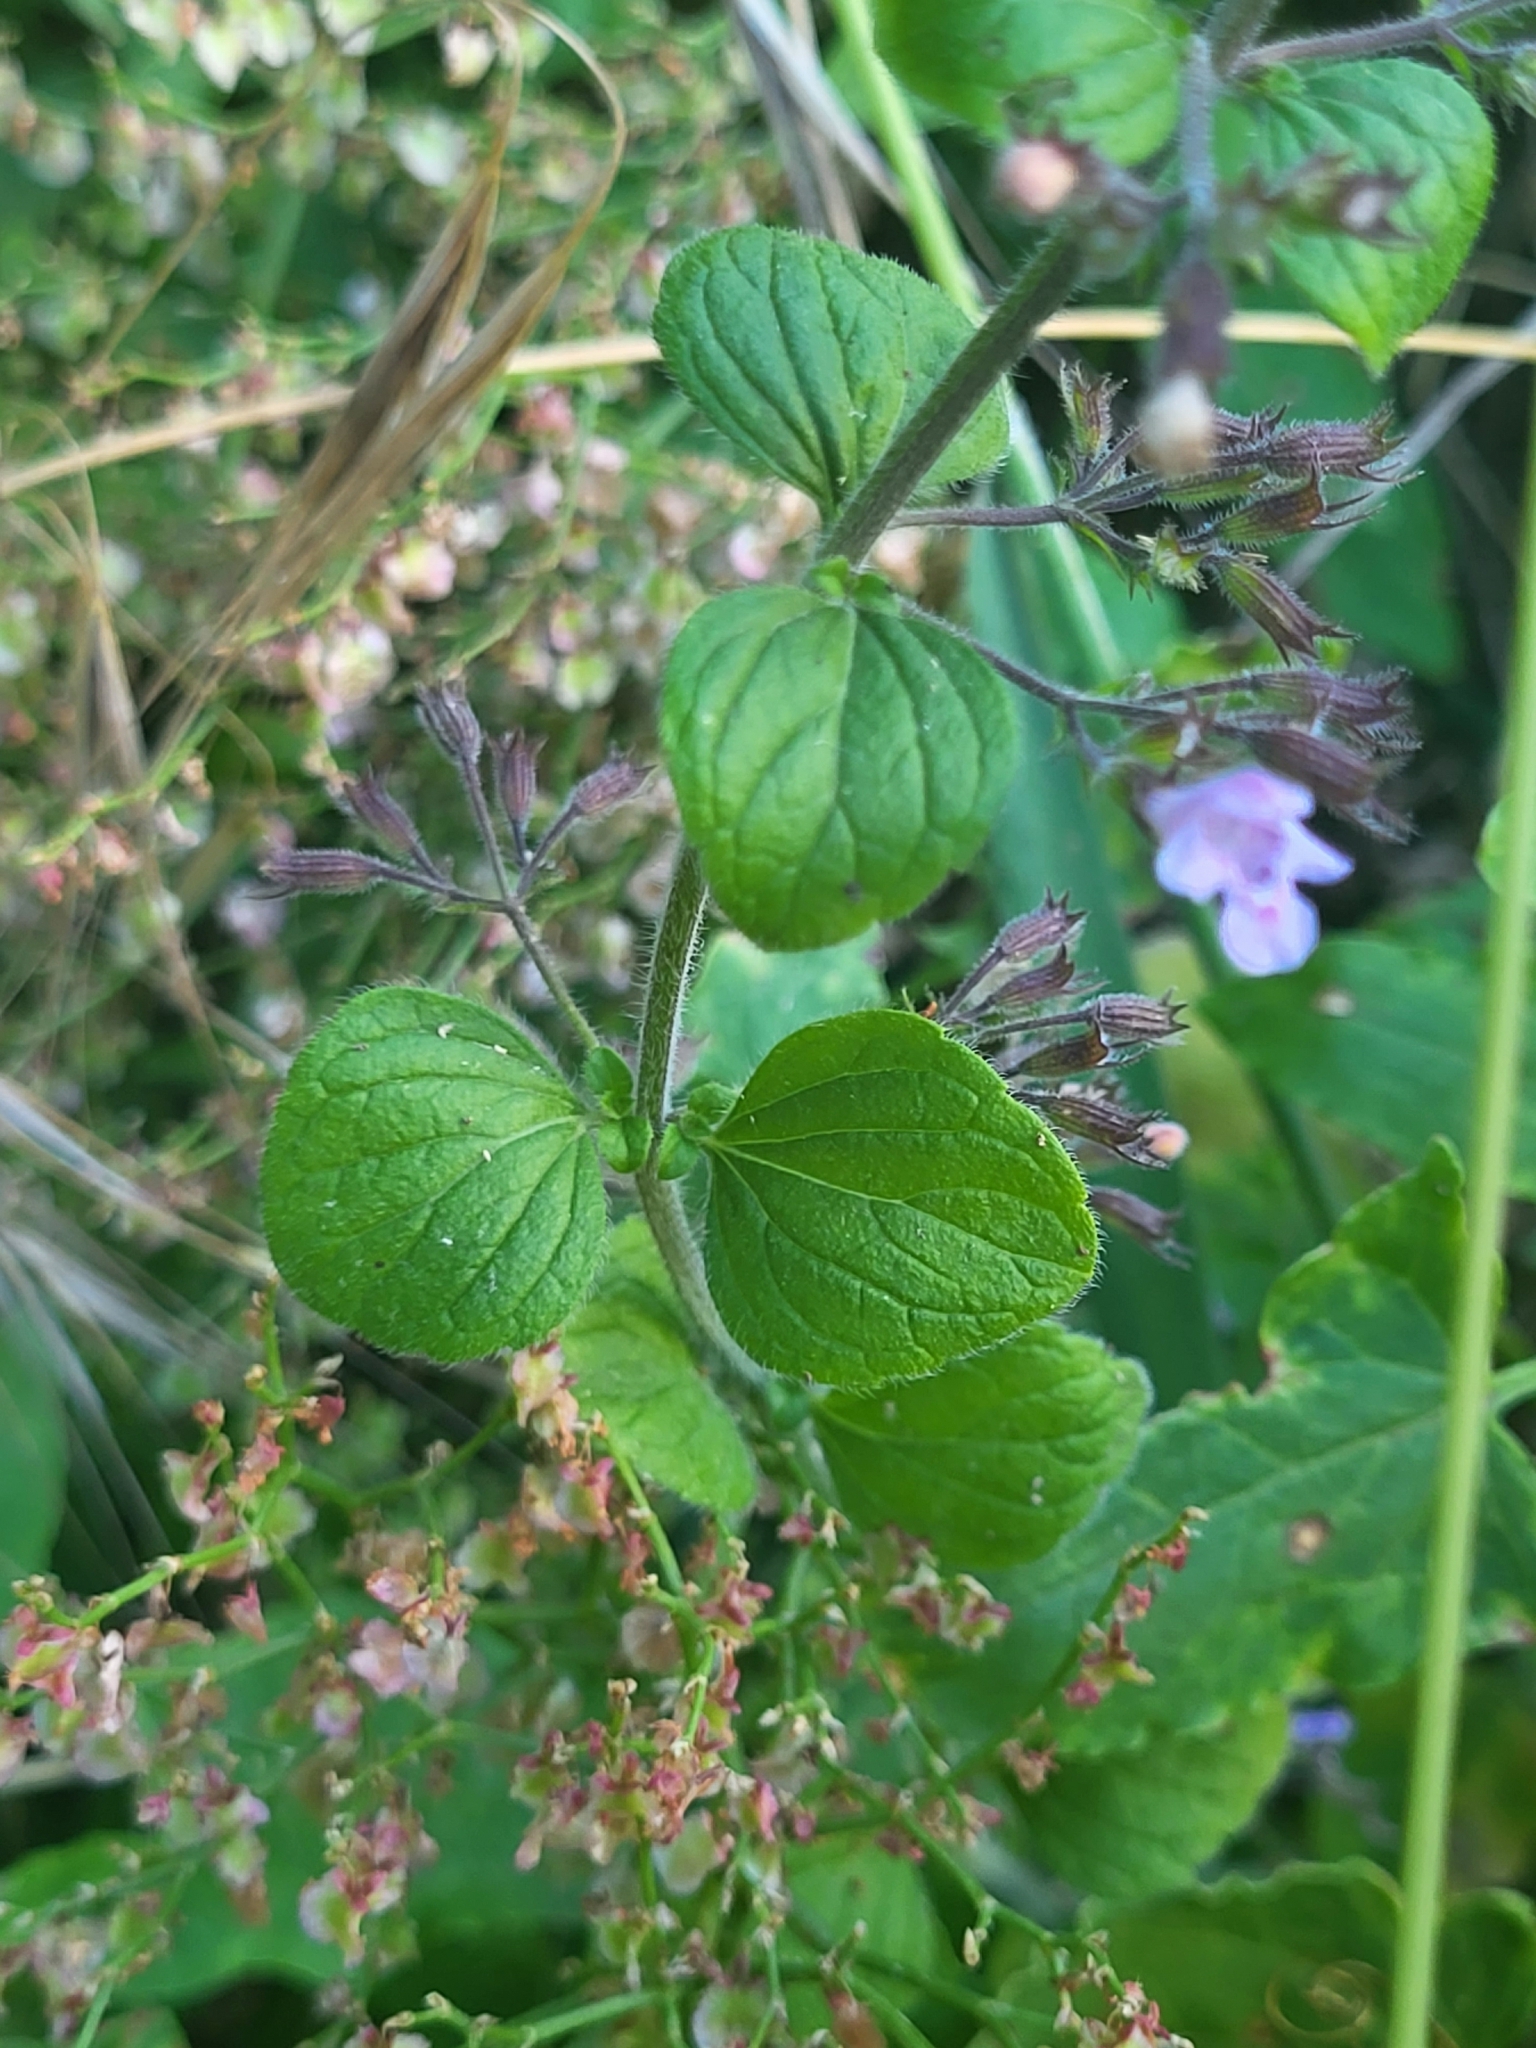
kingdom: Plantae
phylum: Tracheophyta
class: Magnoliopsida
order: Lamiales
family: Lamiaceae
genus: Clinopodium
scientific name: Clinopodium menthifolium
